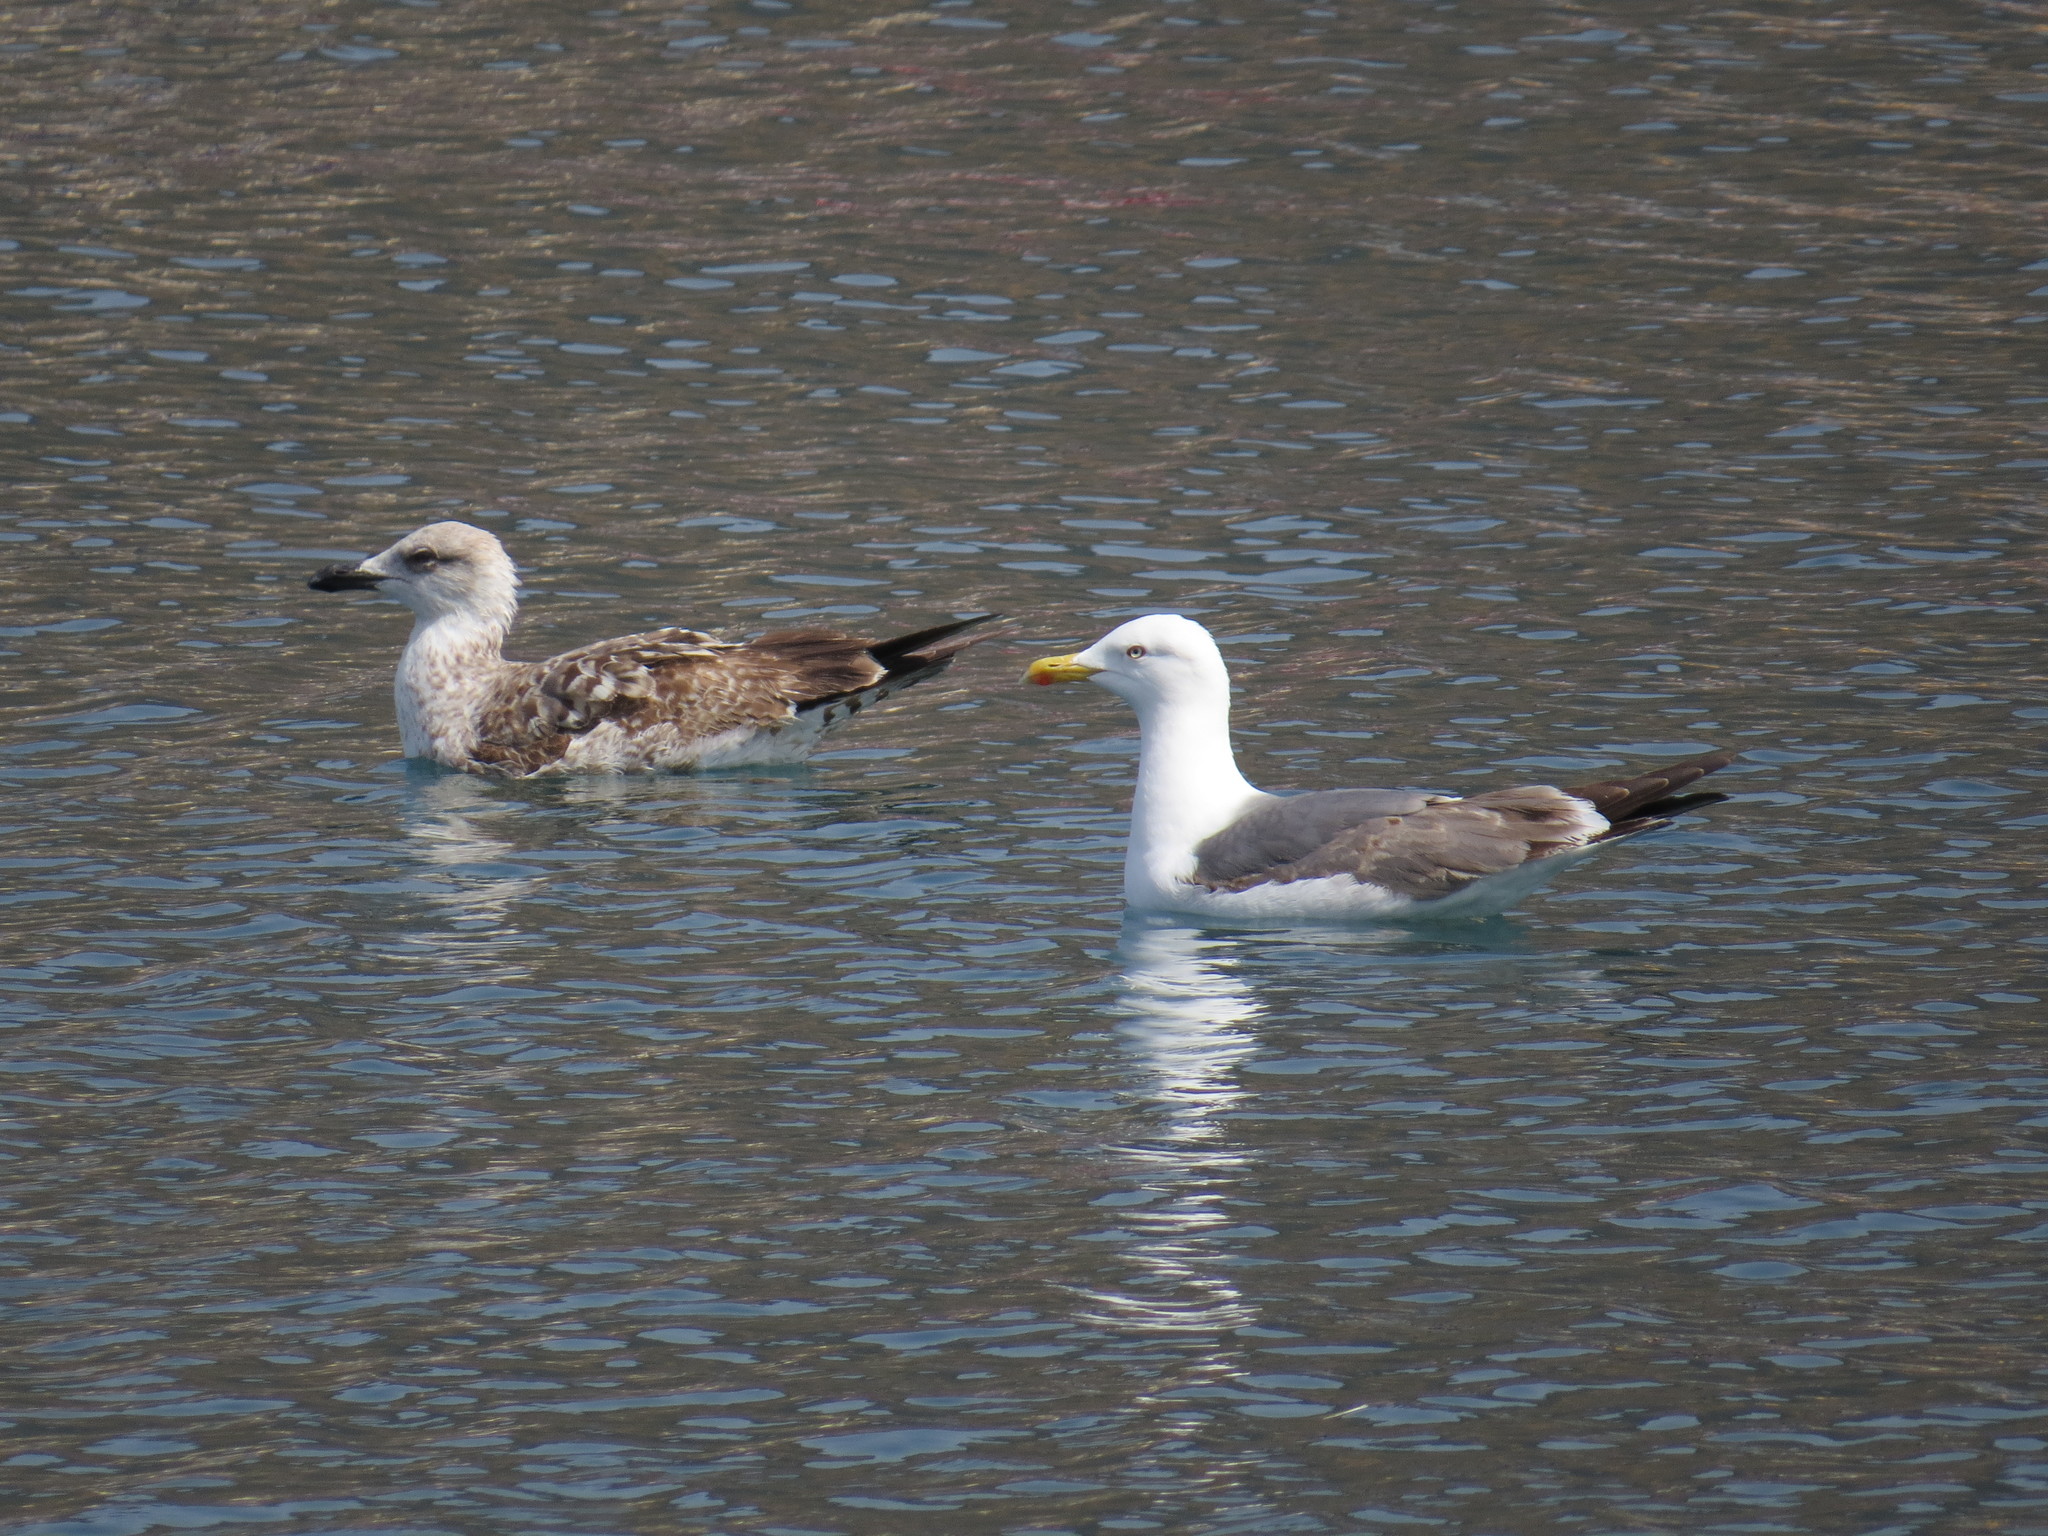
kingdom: Animalia
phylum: Chordata
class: Aves
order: Charadriiformes
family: Laridae
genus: Larus
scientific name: Larus michahellis
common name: Yellow-legged gull
